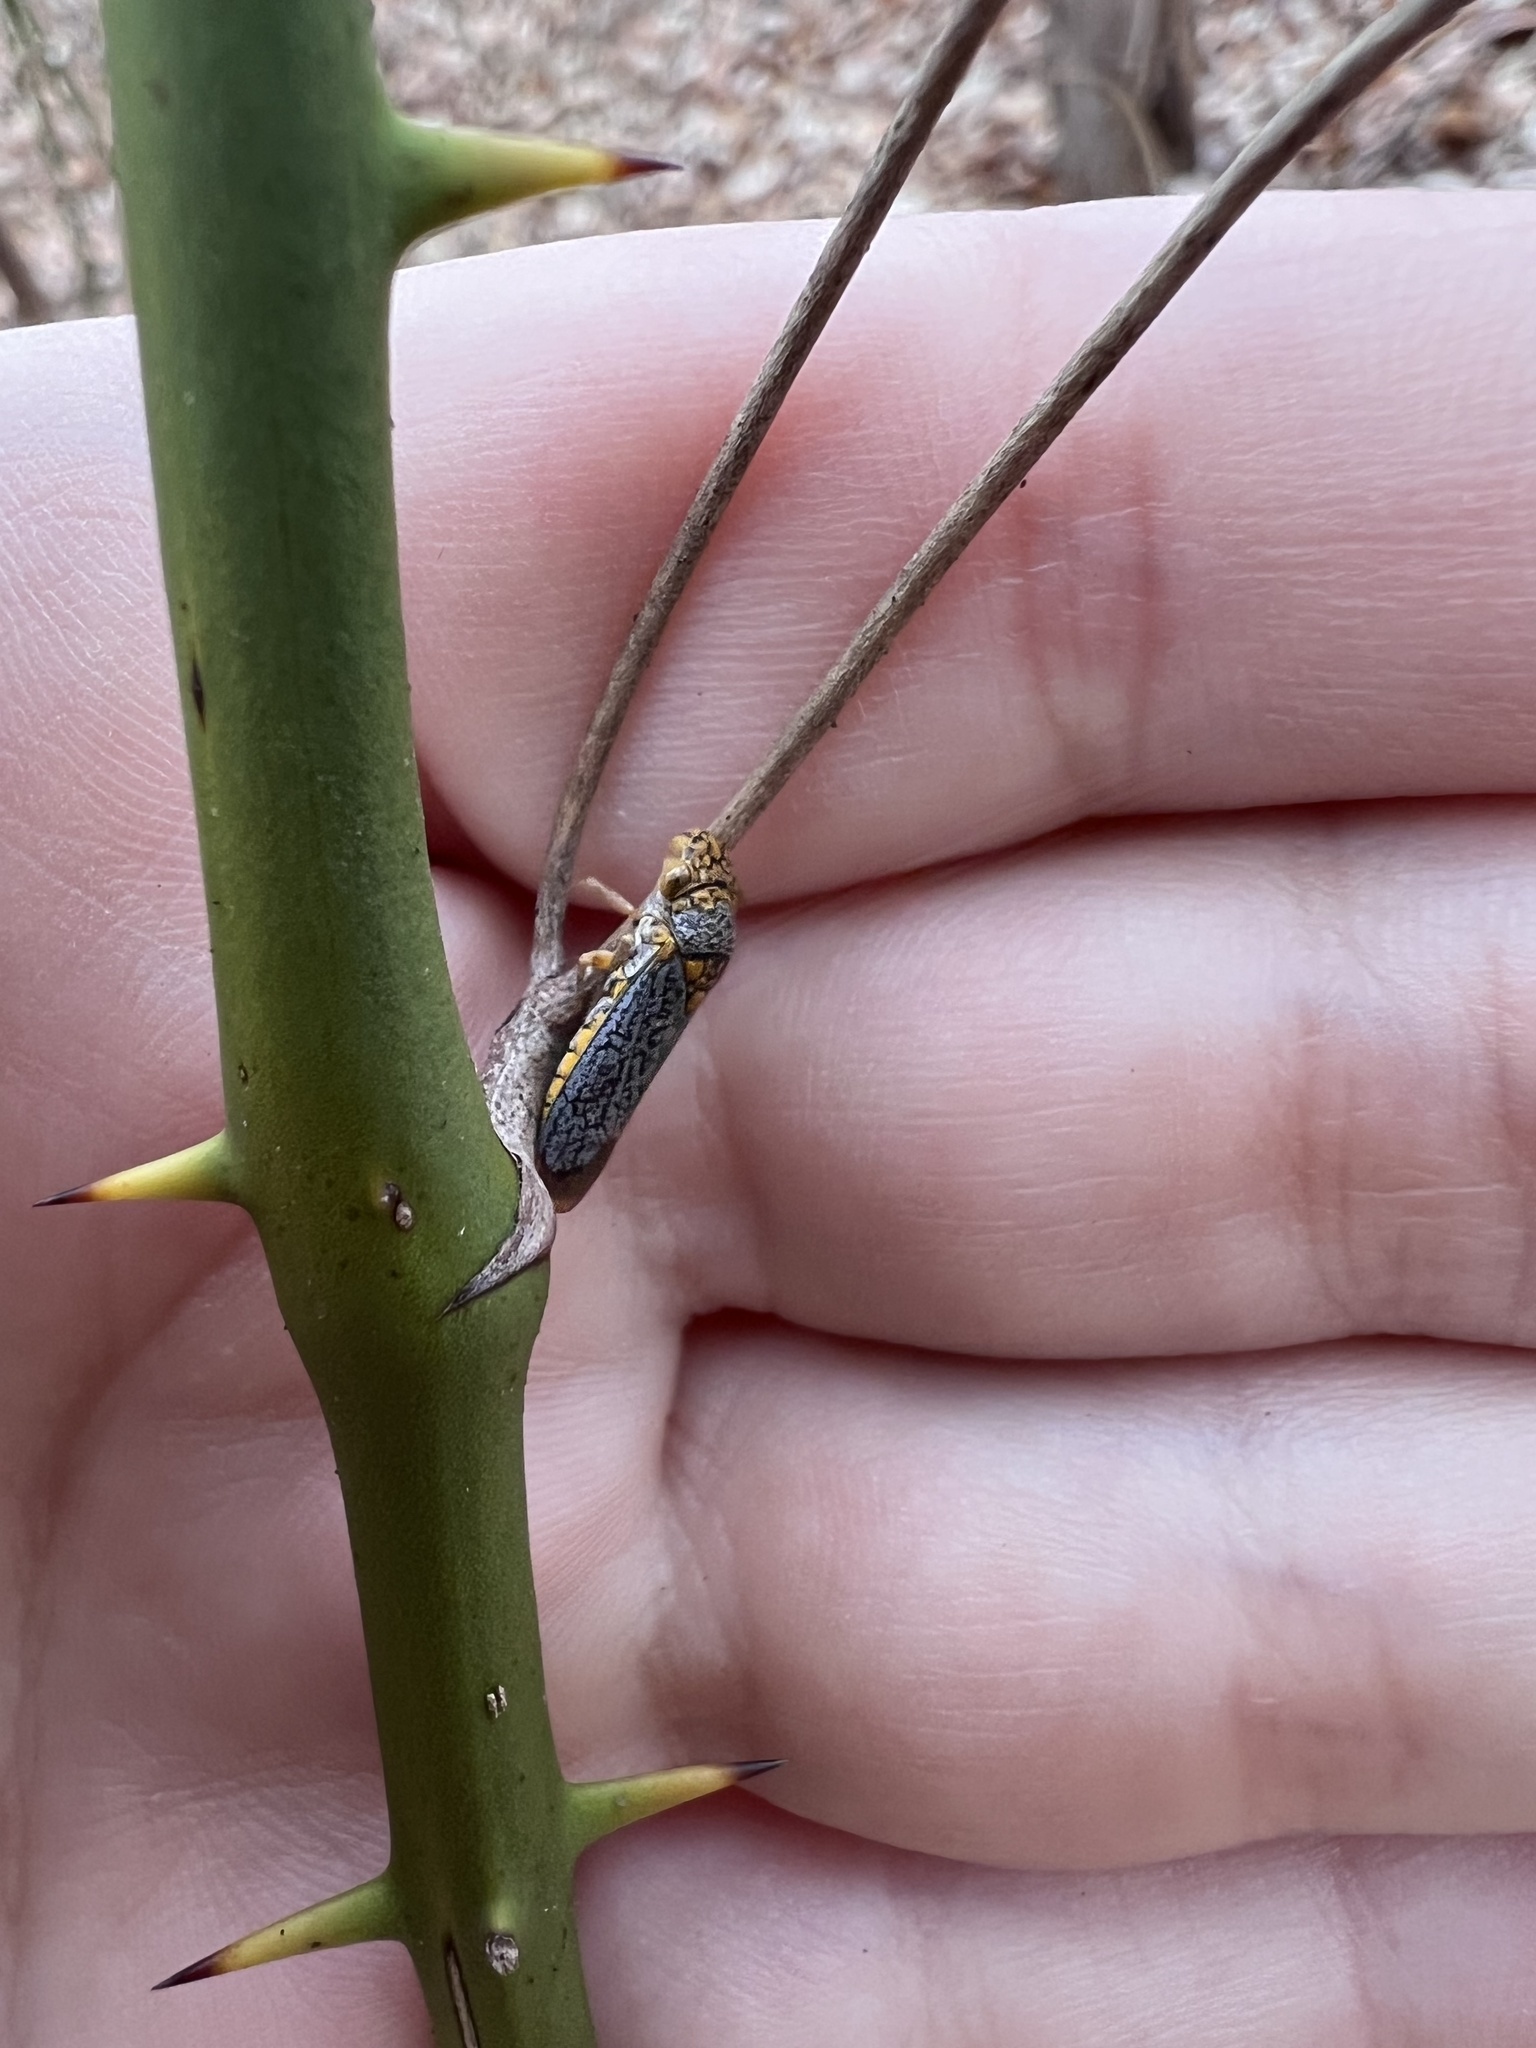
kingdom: Animalia
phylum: Arthropoda
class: Insecta
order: Hemiptera
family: Cicadellidae
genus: Oncometopia
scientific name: Oncometopia orbona
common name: Broad-headed sharpshooter
